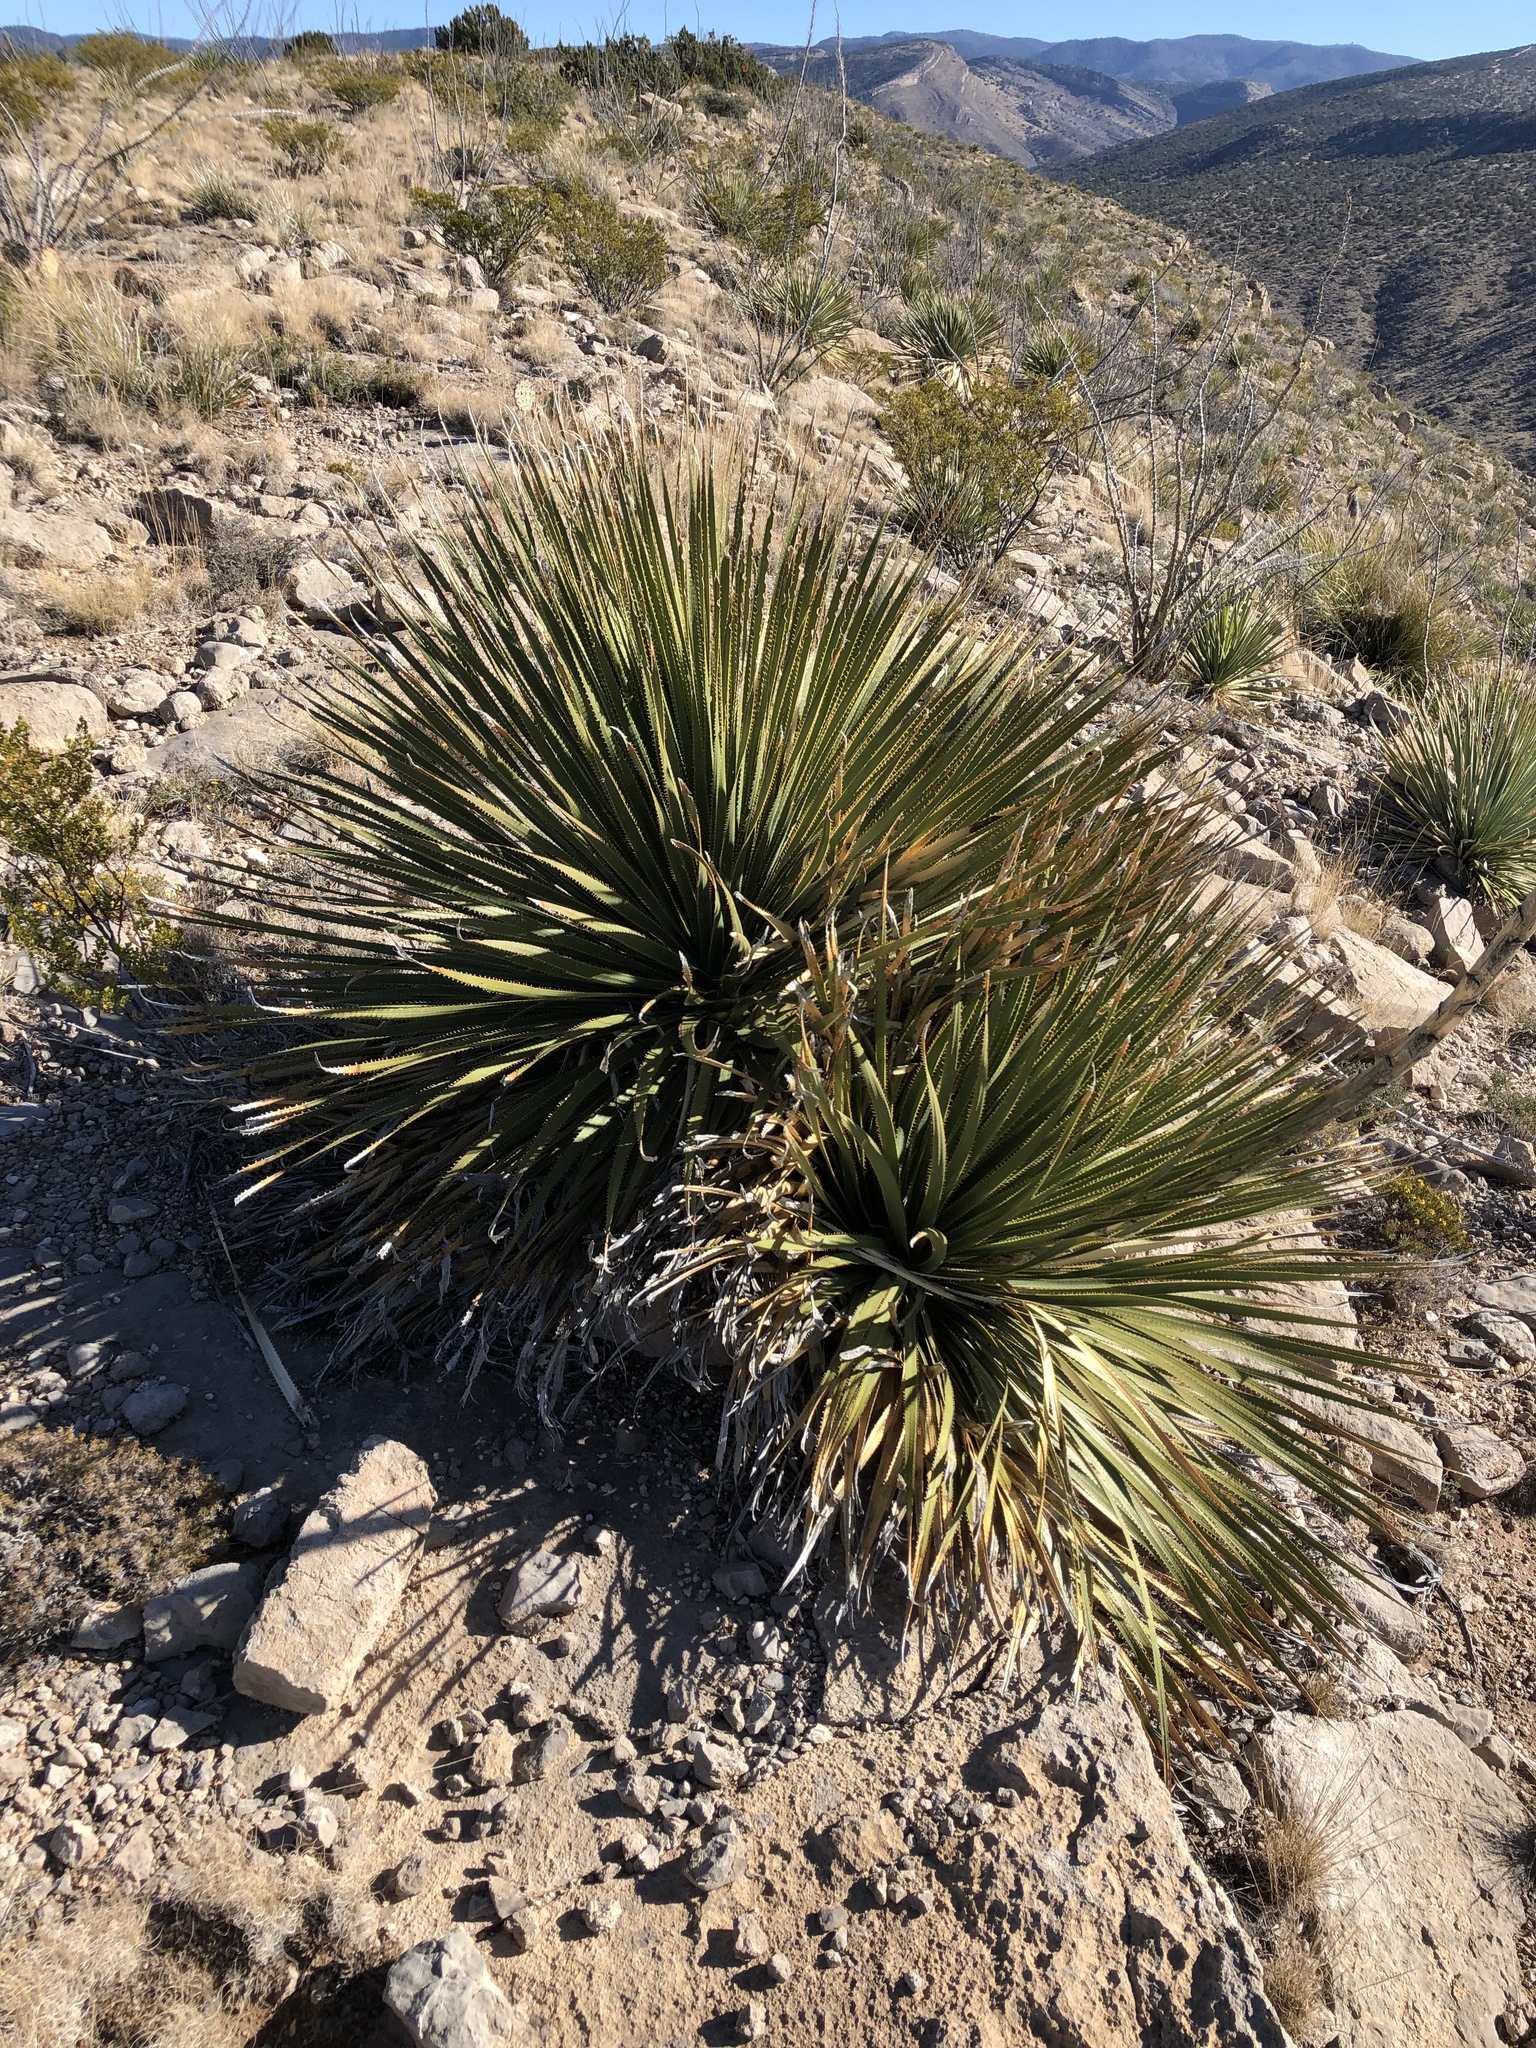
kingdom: Plantae
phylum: Tracheophyta
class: Liliopsida
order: Asparagales
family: Asparagaceae
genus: Dasylirion
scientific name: Dasylirion wheeleri
